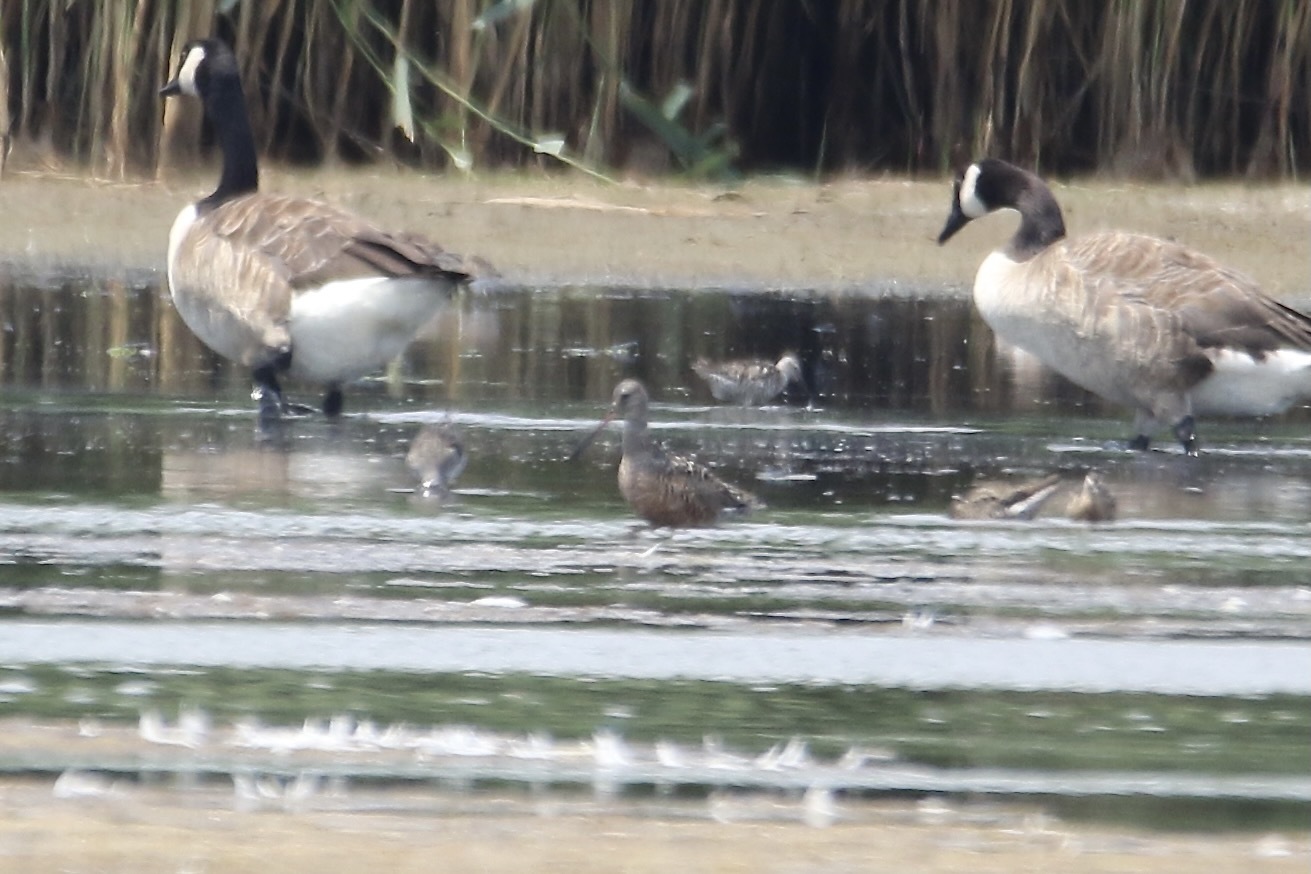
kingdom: Animalia
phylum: Chordata
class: Aves
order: Charadriiformes
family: Scolopacidae
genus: Limosa
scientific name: Limosa haemastica
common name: Hudsonian godwit
